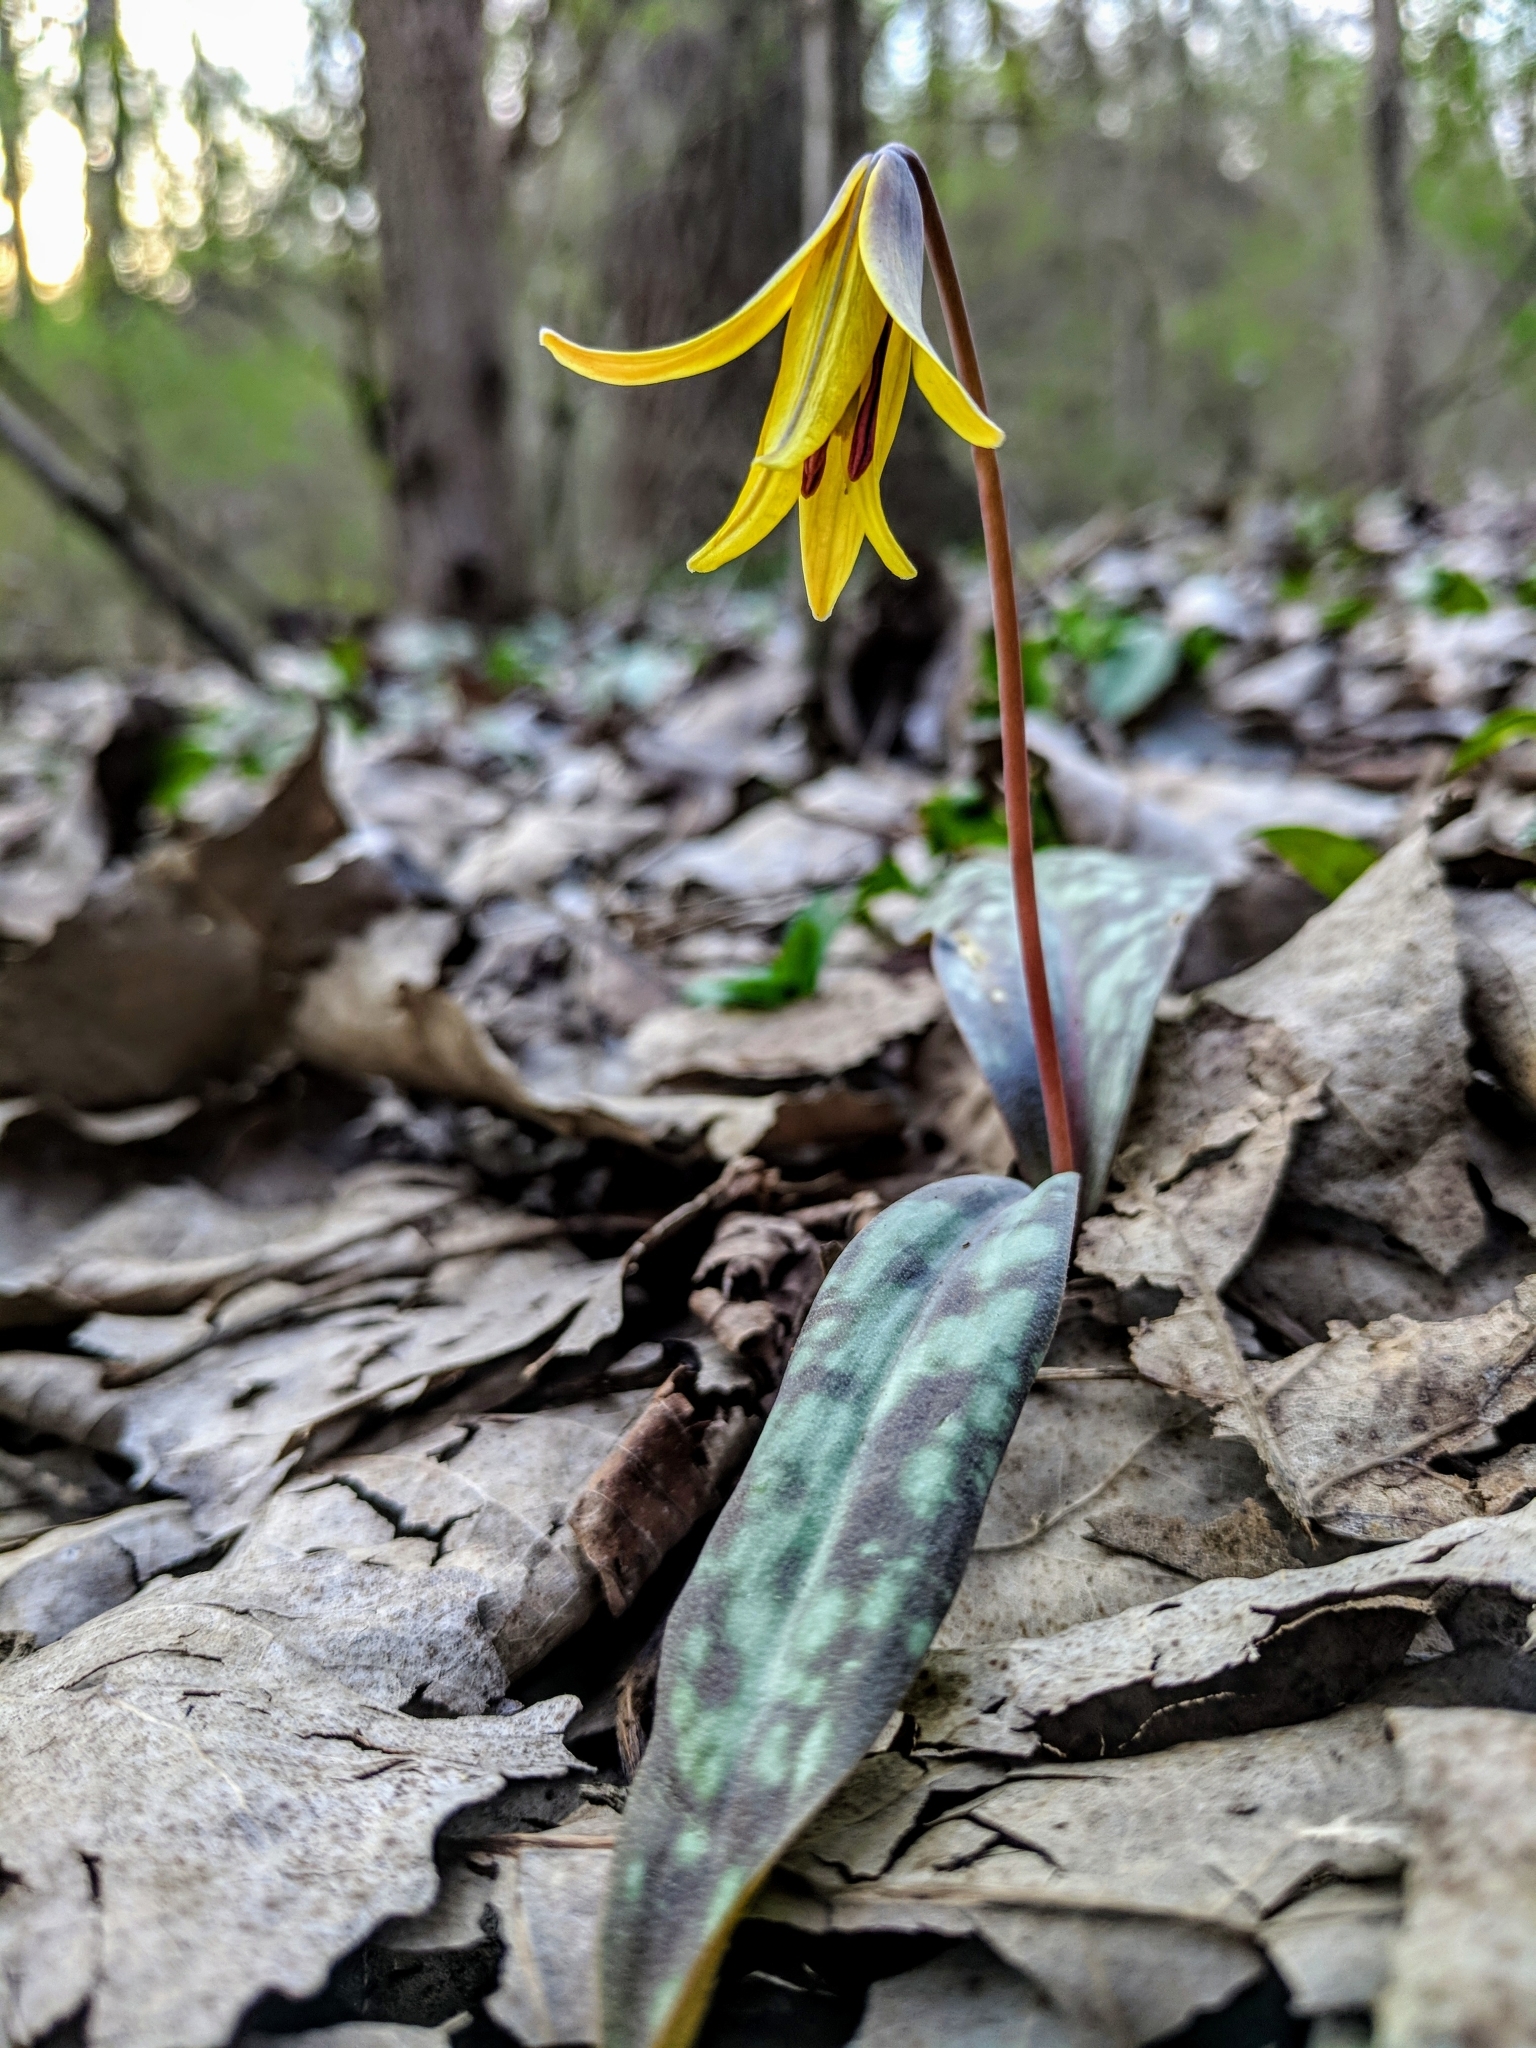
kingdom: Plantae
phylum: Tracheophyta
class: Liliopsida
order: Liliales
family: Liliaceae
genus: Erythronium
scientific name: Erythronium americanum
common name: Yellow adder's-tongue
